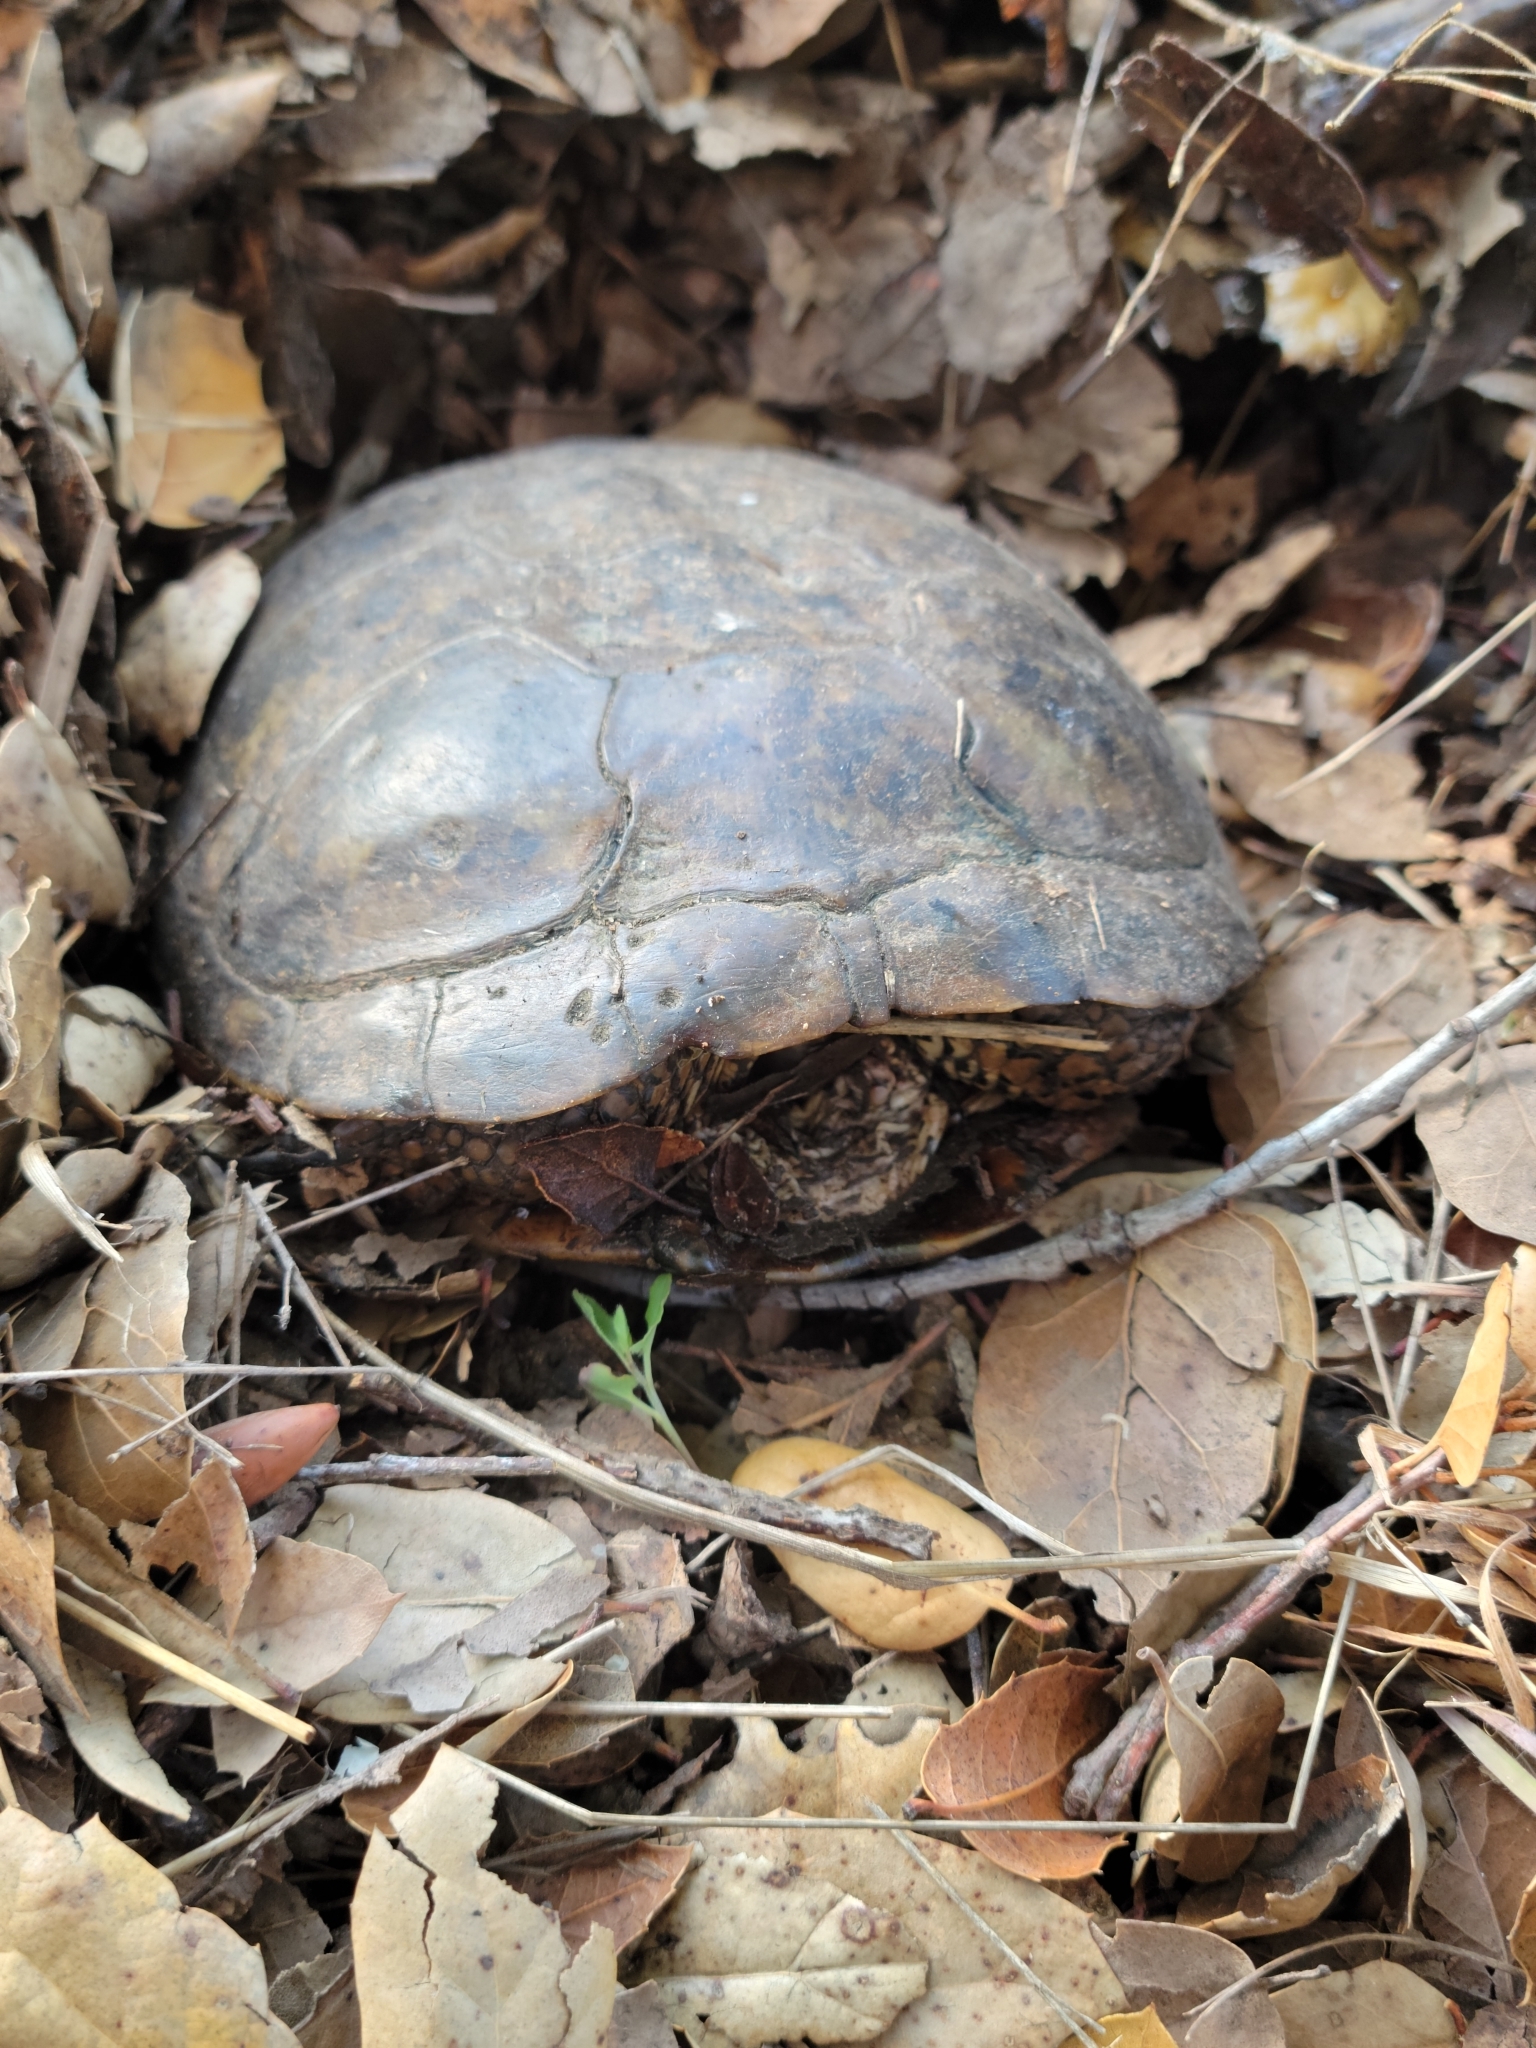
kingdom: Animalia
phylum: Chordata
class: Testudines
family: Emydidae
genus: Actinemys
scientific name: Actinemys marmorata
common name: Western pond turtle
